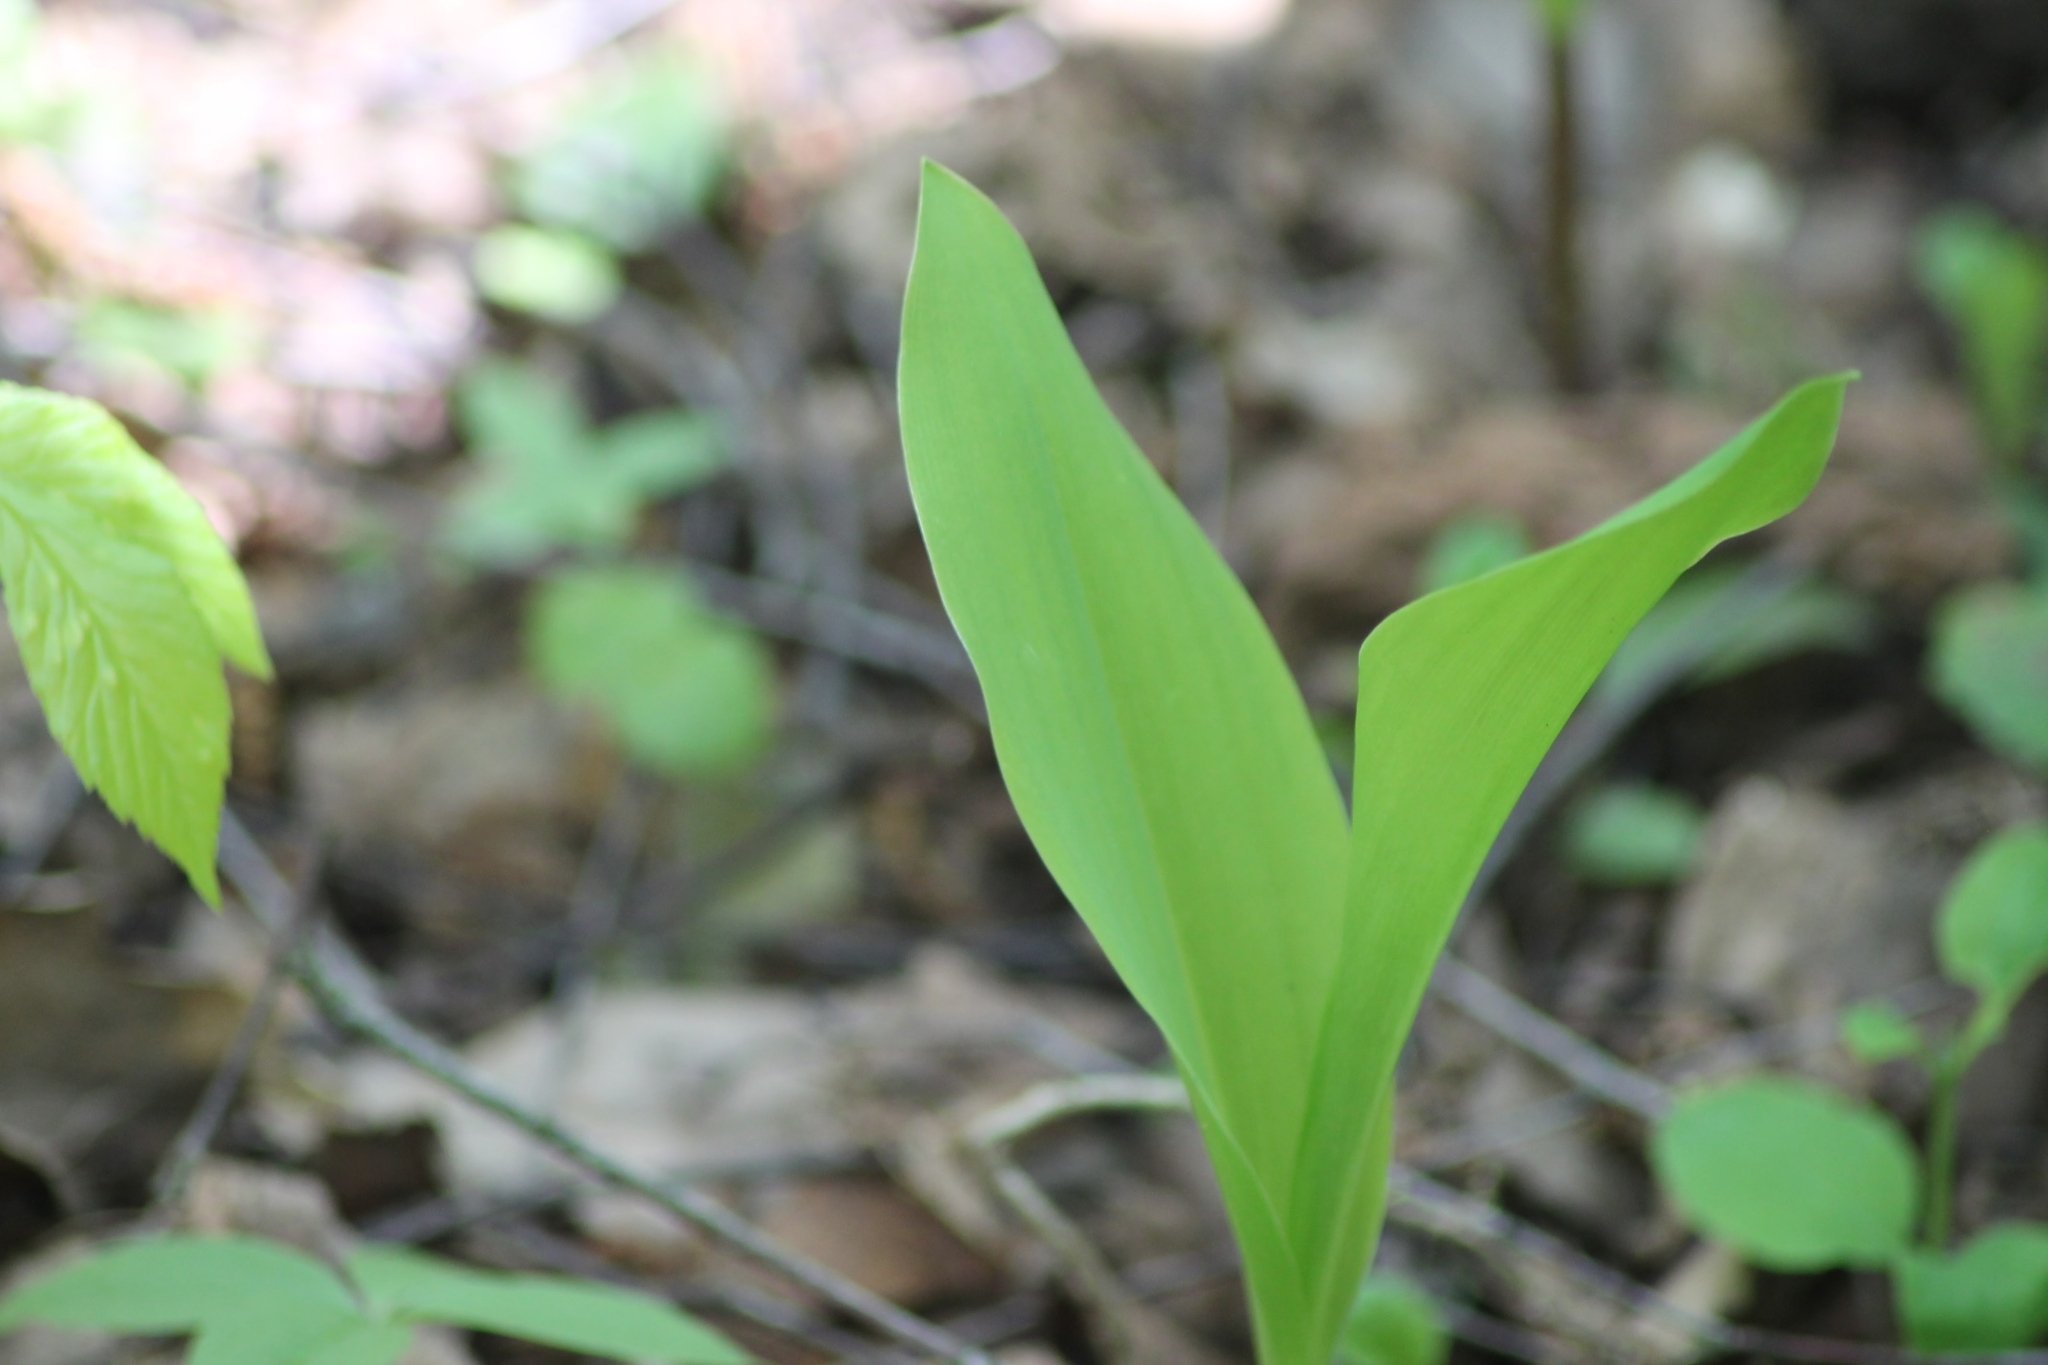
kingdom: Plantae
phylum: Tracheophyta
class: Liliopsida
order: Asparagales
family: Asparagaceae
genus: Convallaria
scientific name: Convallaria majalis
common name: Lily-of-the-valley
